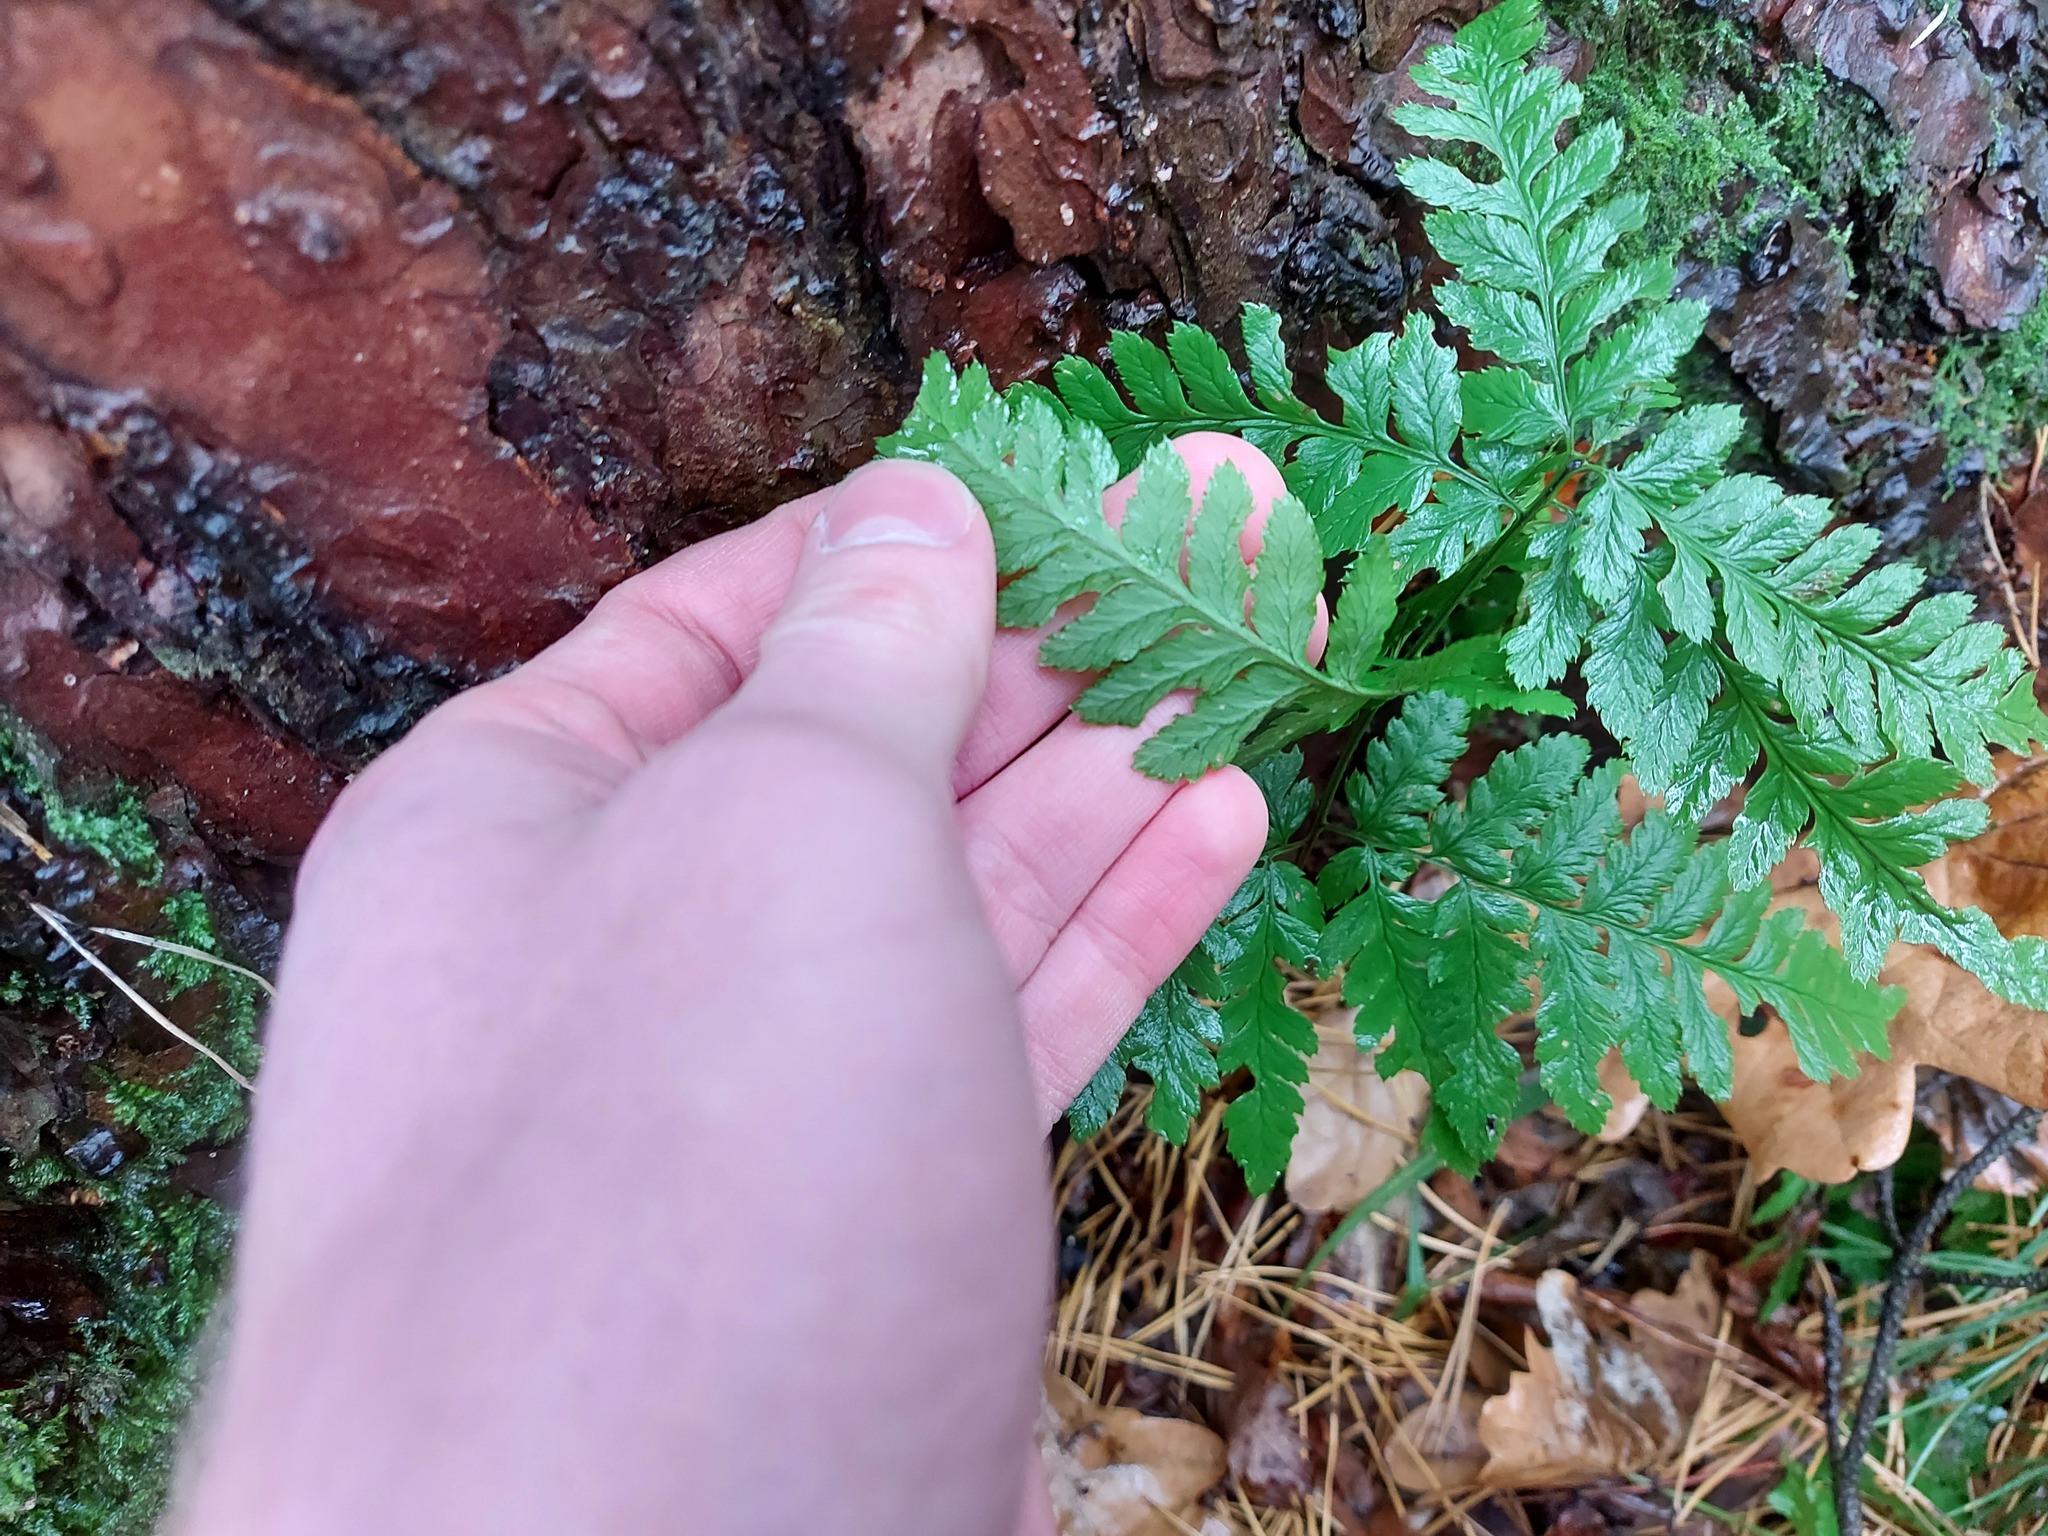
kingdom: Plantae
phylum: Tracheophyta
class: Polypodiopsida
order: Polypodiales
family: Dryopteridaceae
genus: Dryopteris
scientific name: Dryopteris carthusiana
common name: Narrow buckler-fern
